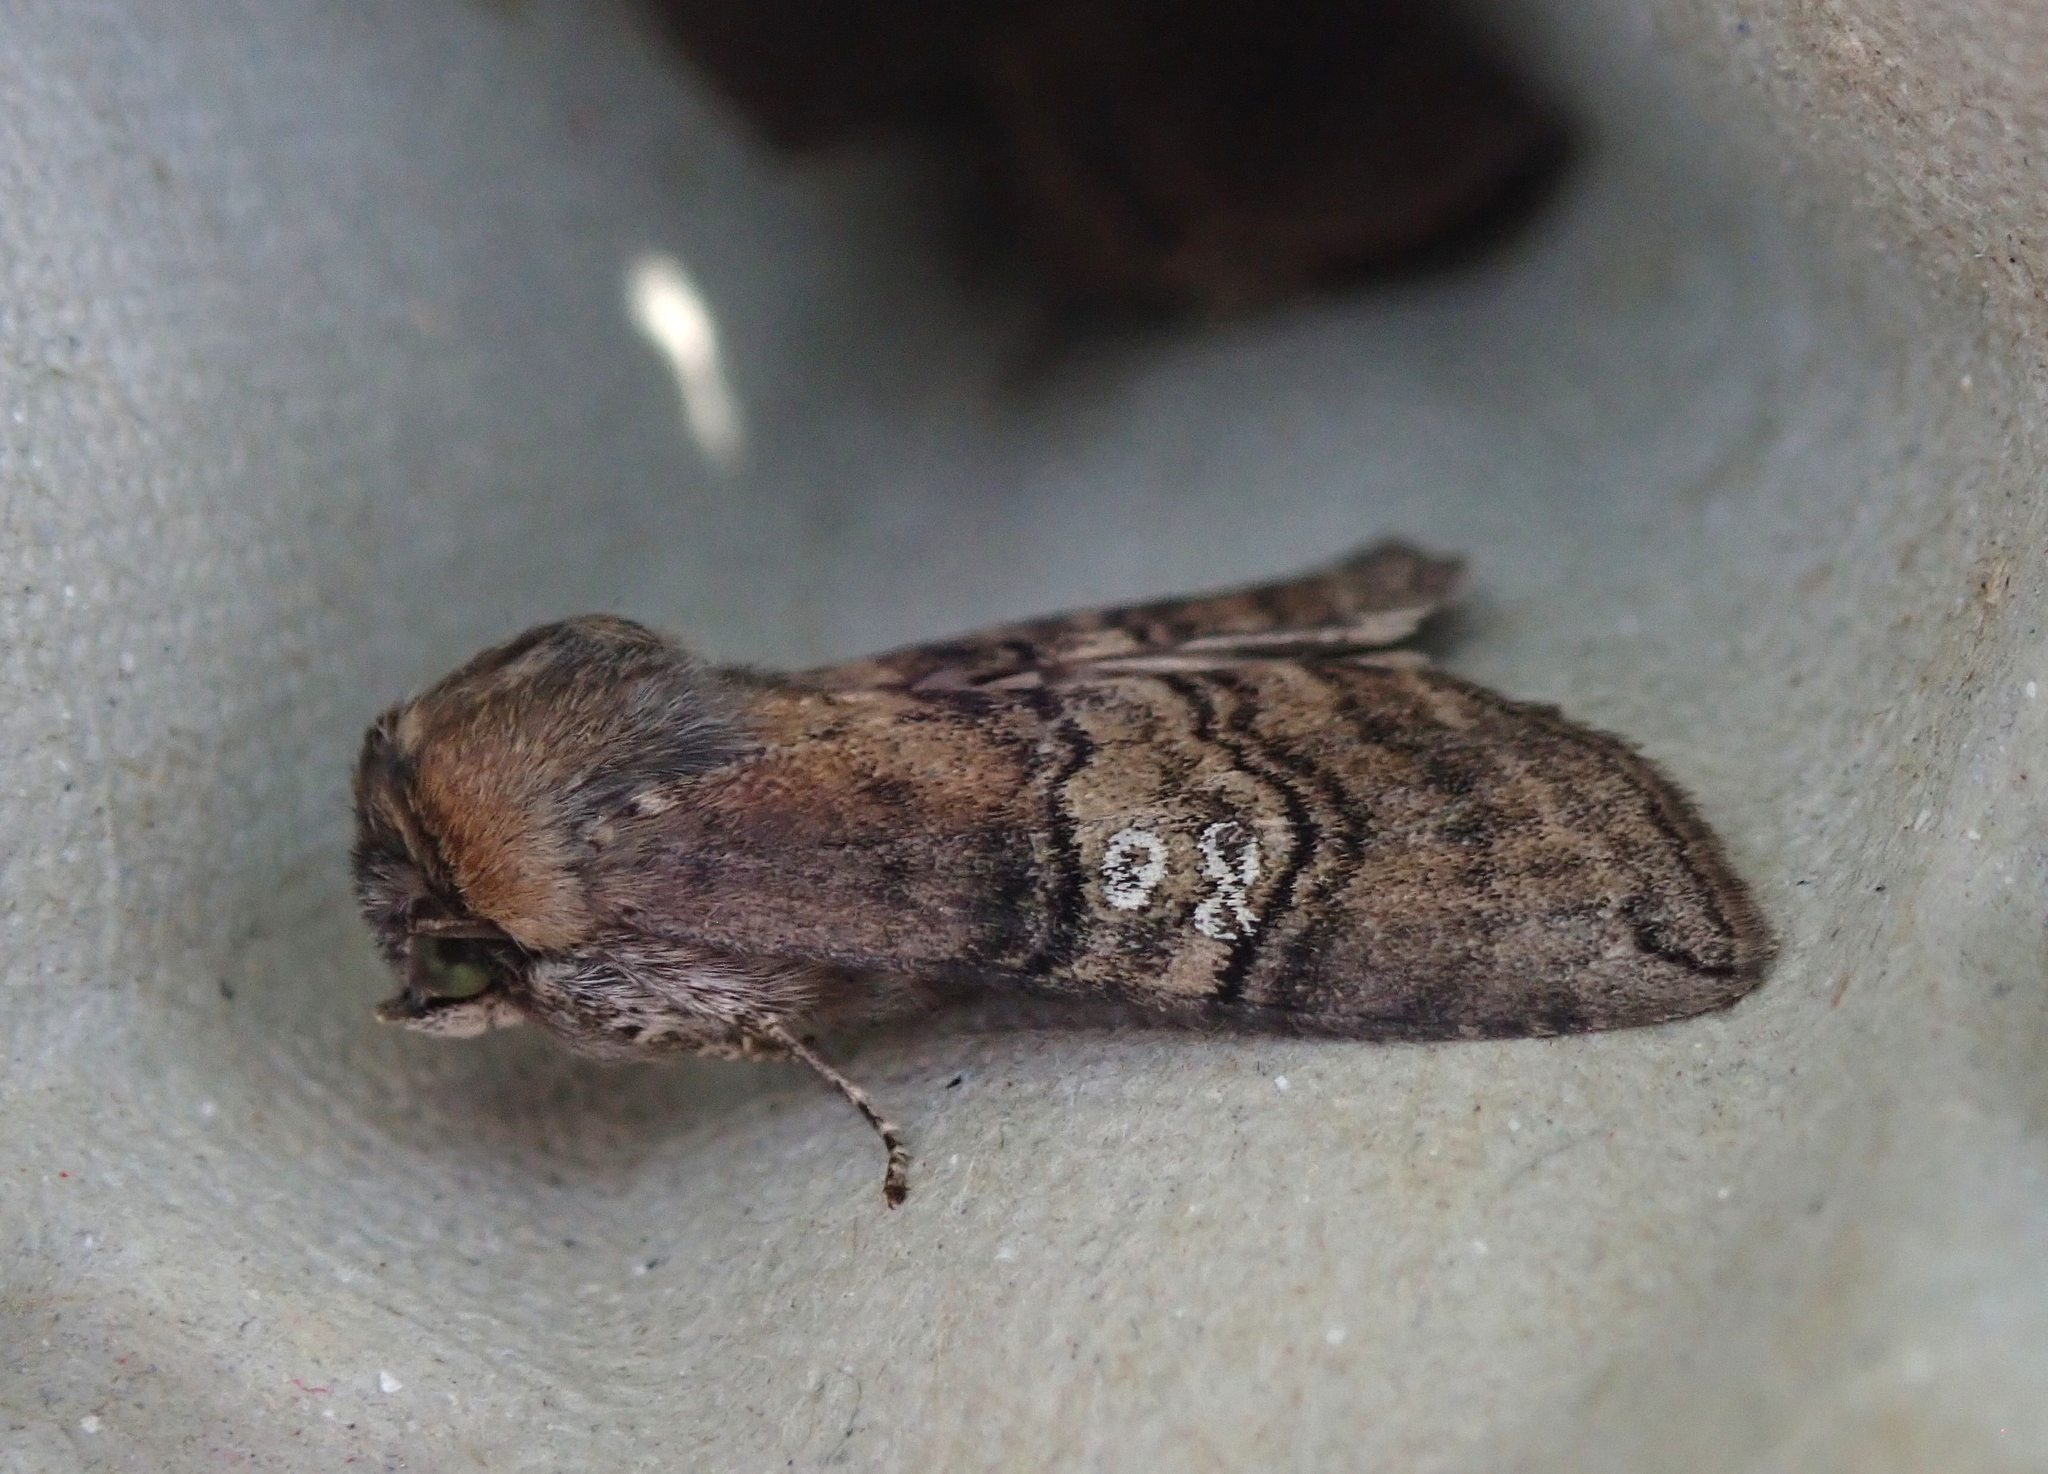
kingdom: Animalia
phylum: Arthropoda
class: Insecta
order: Lepidoptera
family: Drepanidae
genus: Tethea
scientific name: Tethea ocularis
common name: Figure of eighty
